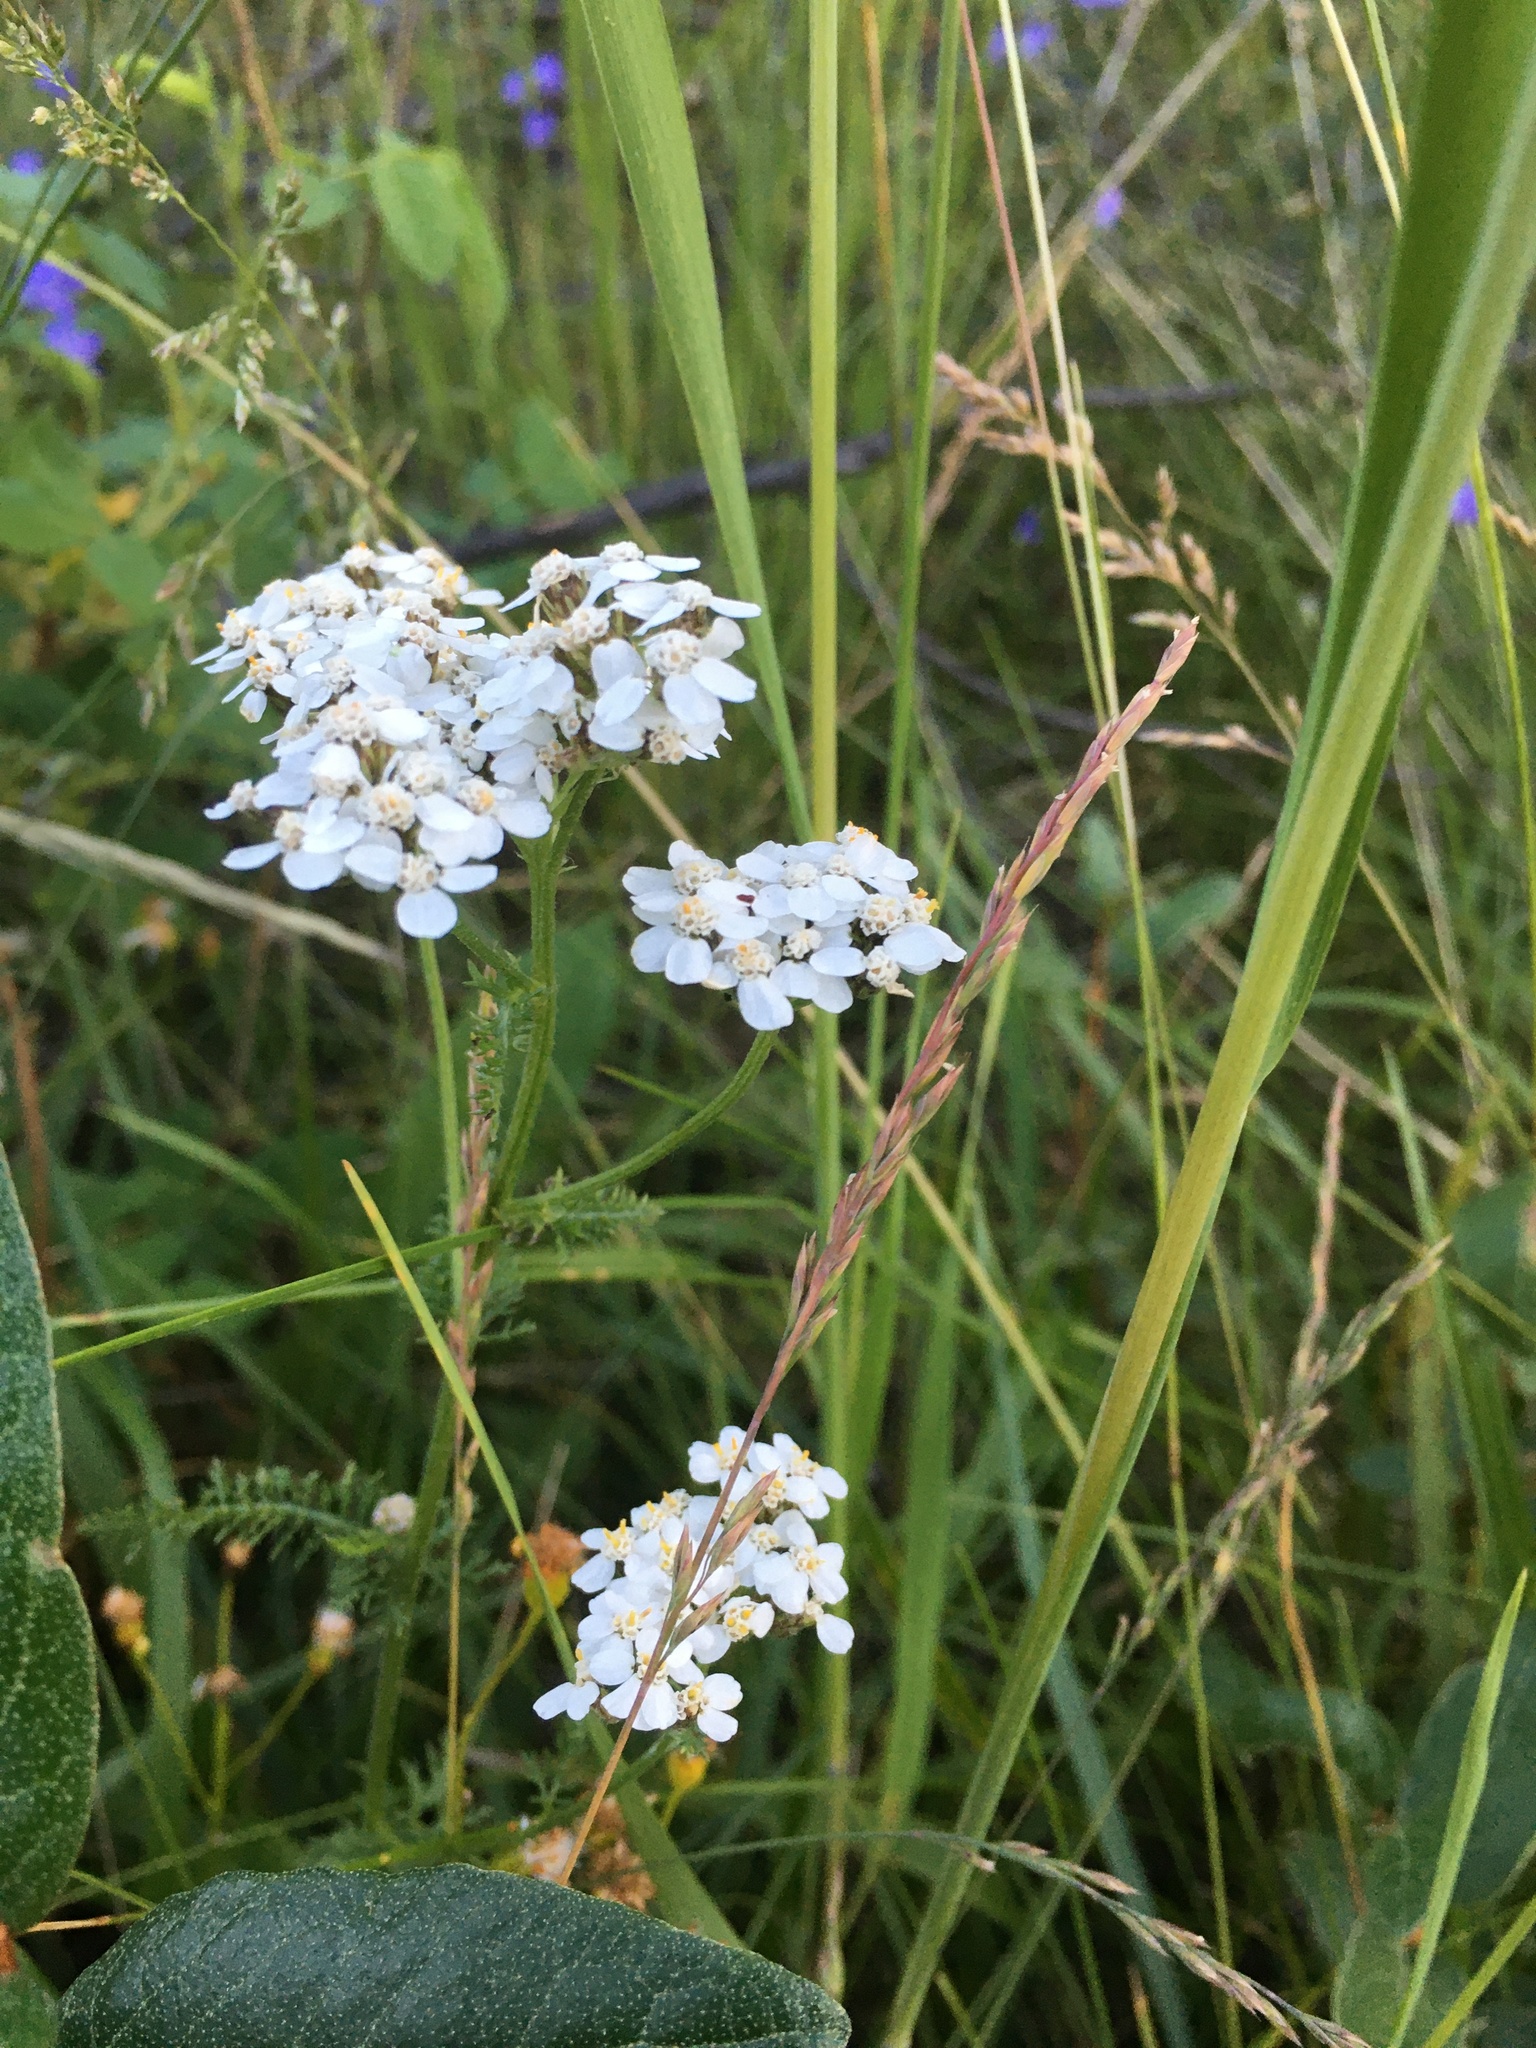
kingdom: Plantae
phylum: Tracheophyta
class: Magnoliopsida
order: Asterales
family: Asteraceae
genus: Achillea
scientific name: Achillea millefolium
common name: Yarrow
